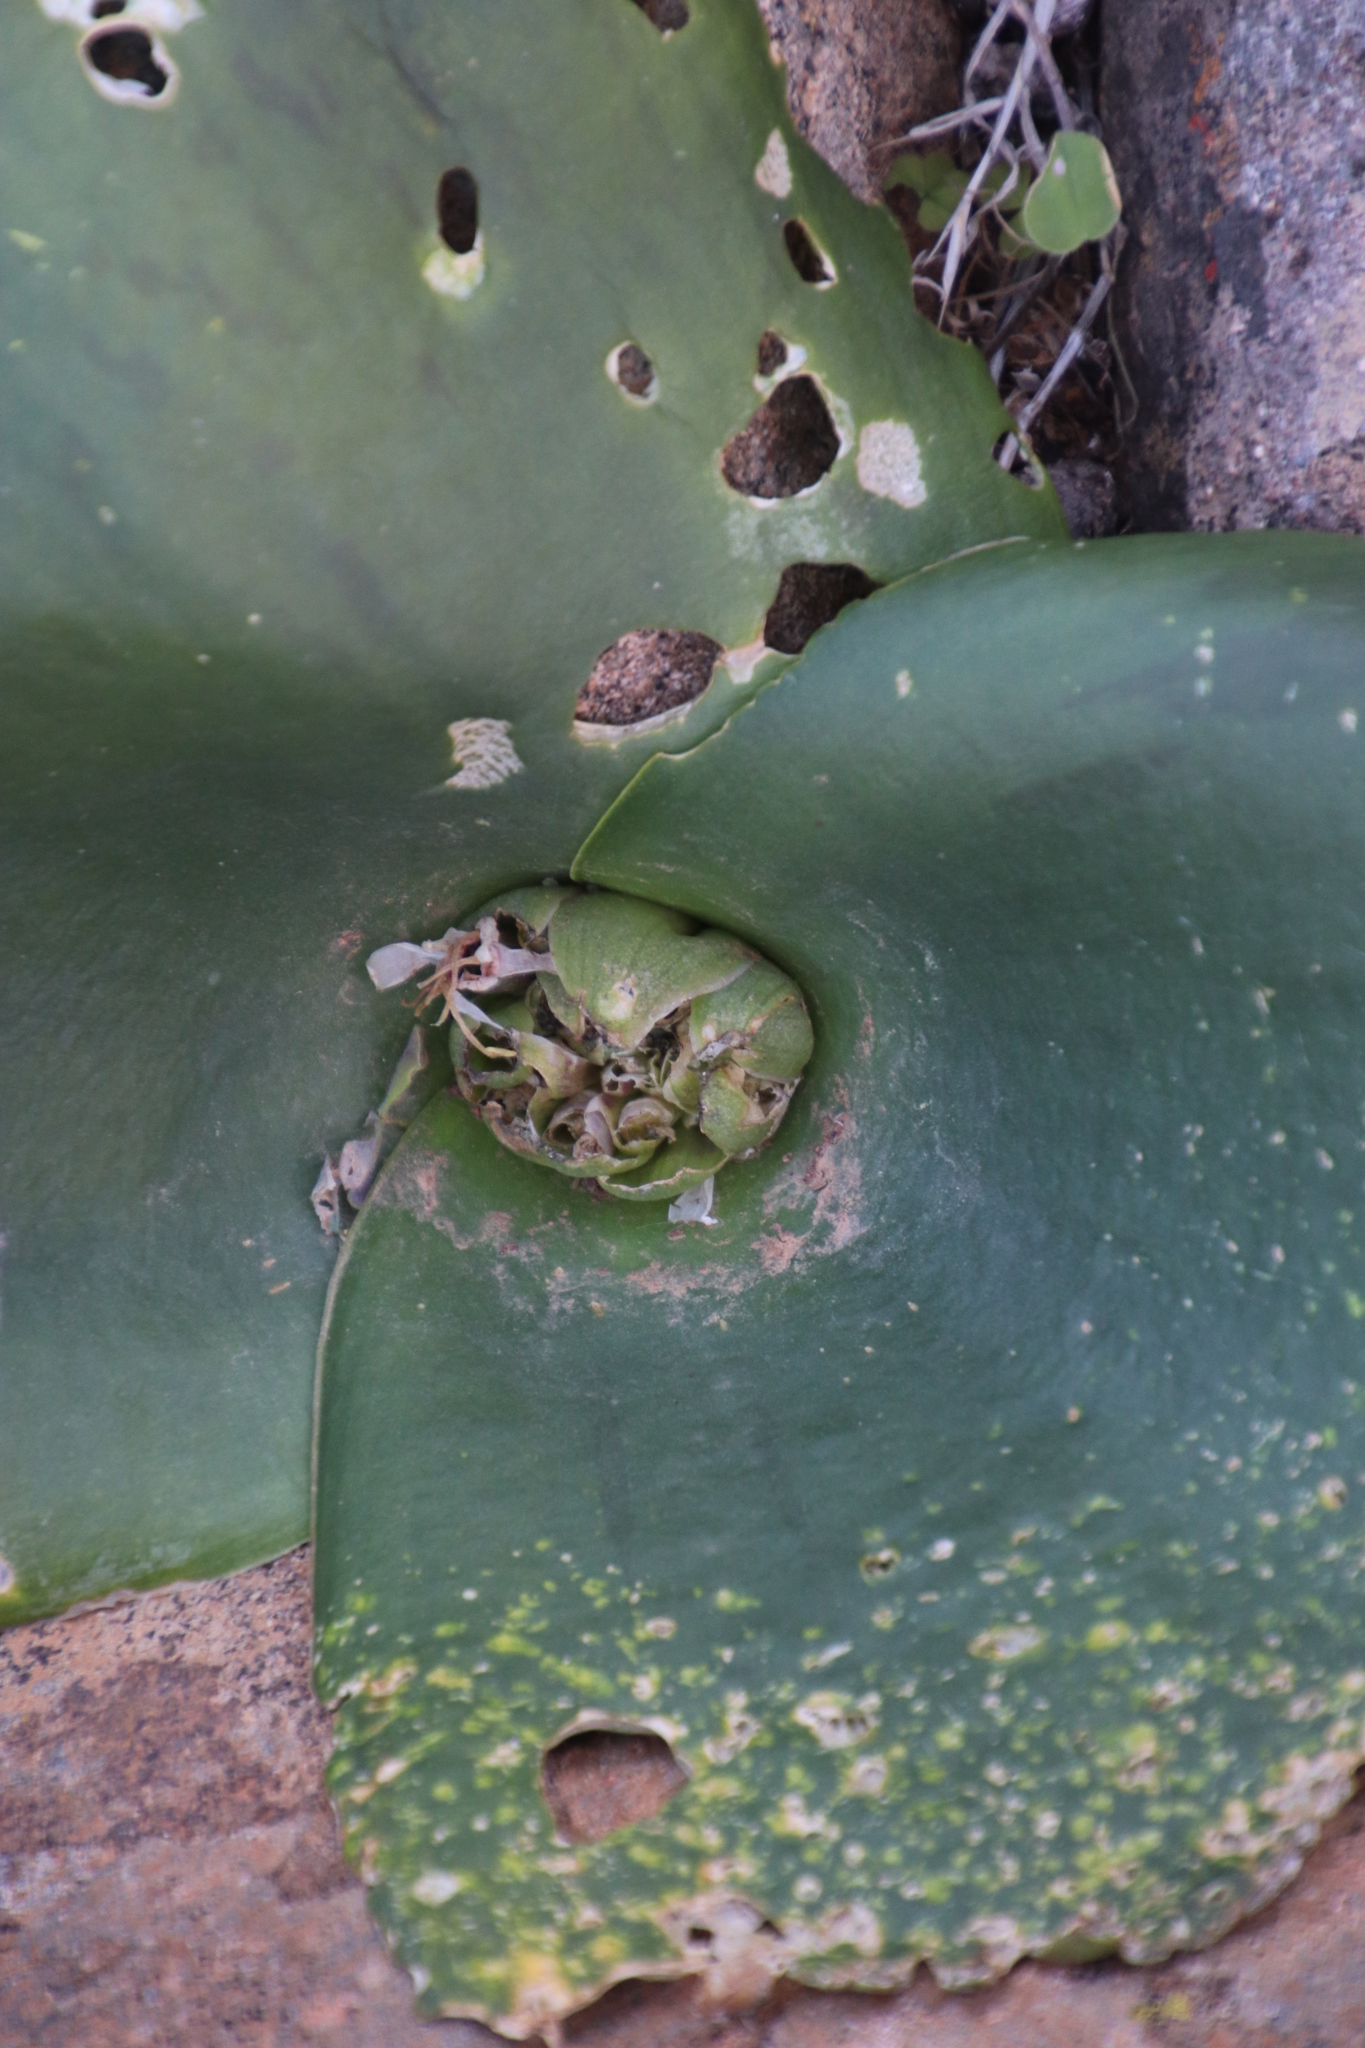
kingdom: Plantae
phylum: Tracheophyta
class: Liliopsida
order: Asparagales
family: Asparagaceae
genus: Massonia
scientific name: Massonia depressa
